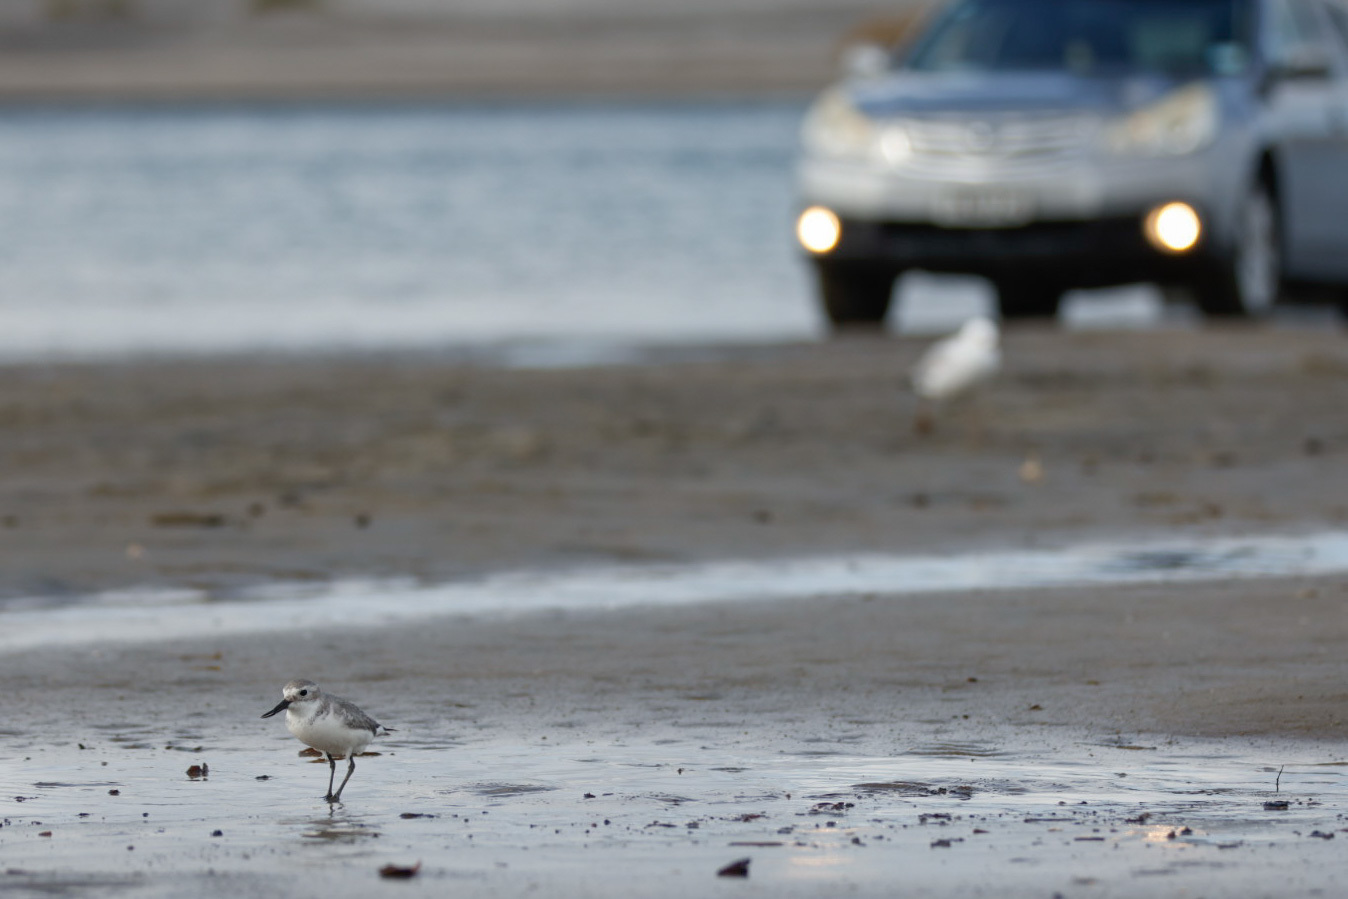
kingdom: Animalia
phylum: Chordata
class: Aves
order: Charadriiformes
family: Charadriidae
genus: Anarhynchus
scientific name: Anarhynchus frontalis
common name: Wrybill
